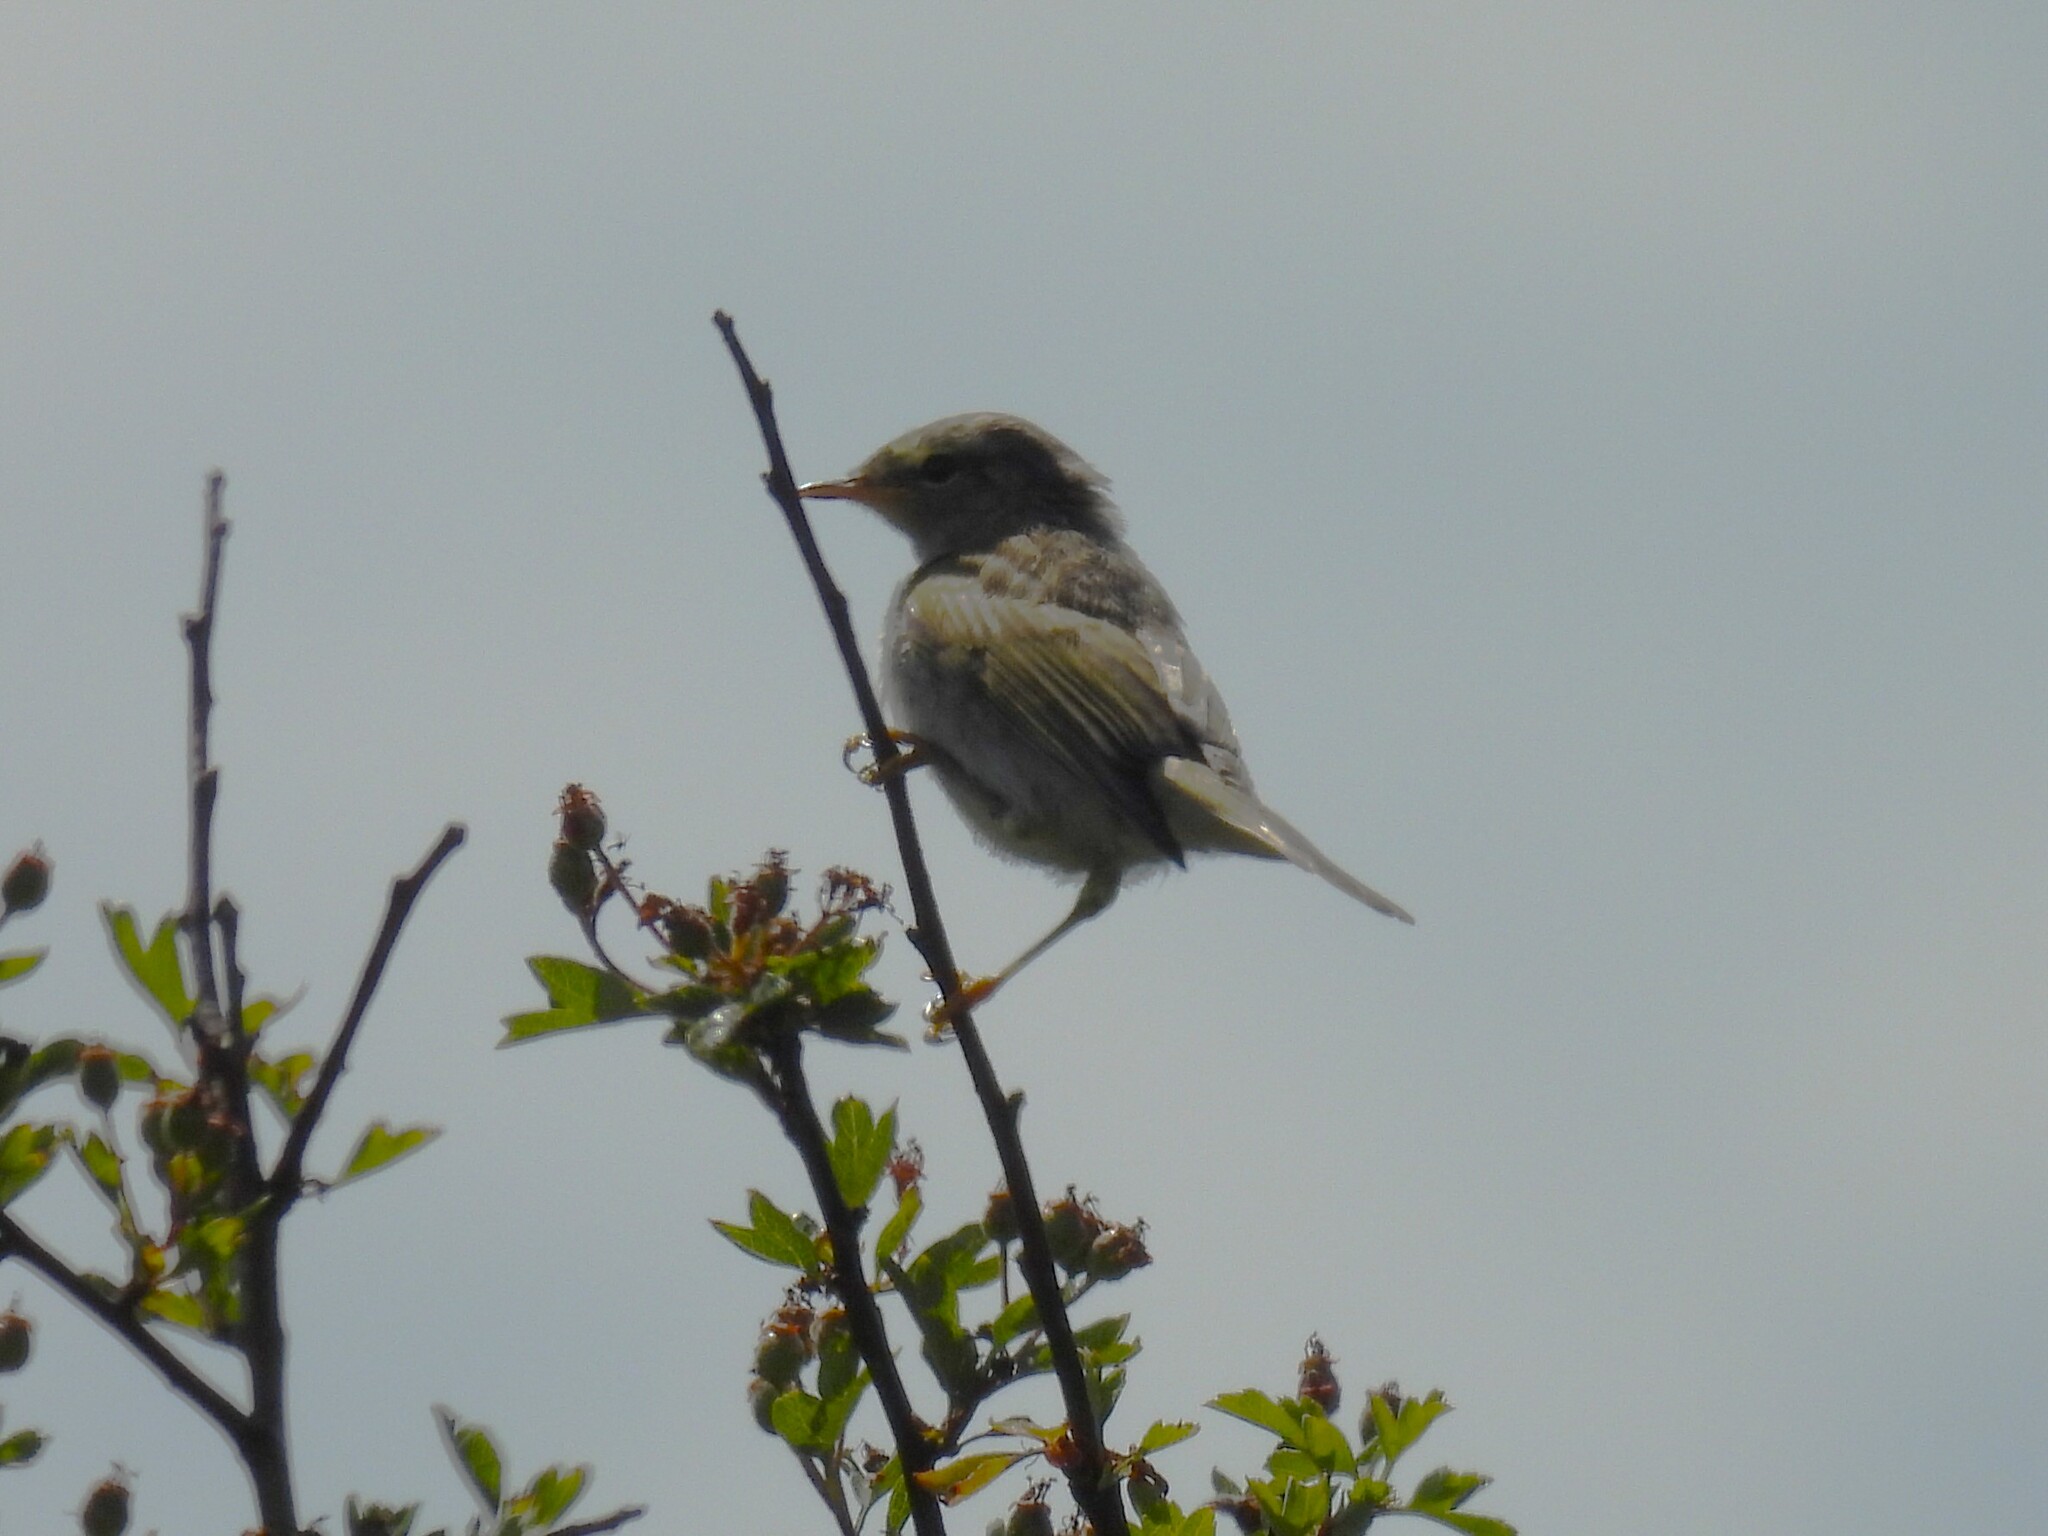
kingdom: Animalia
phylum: Chordata
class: Aves
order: Passeriformes
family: Phylloscopidae
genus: Phylloscopus
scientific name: Phylloscopus trochilus
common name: Willow warbler
